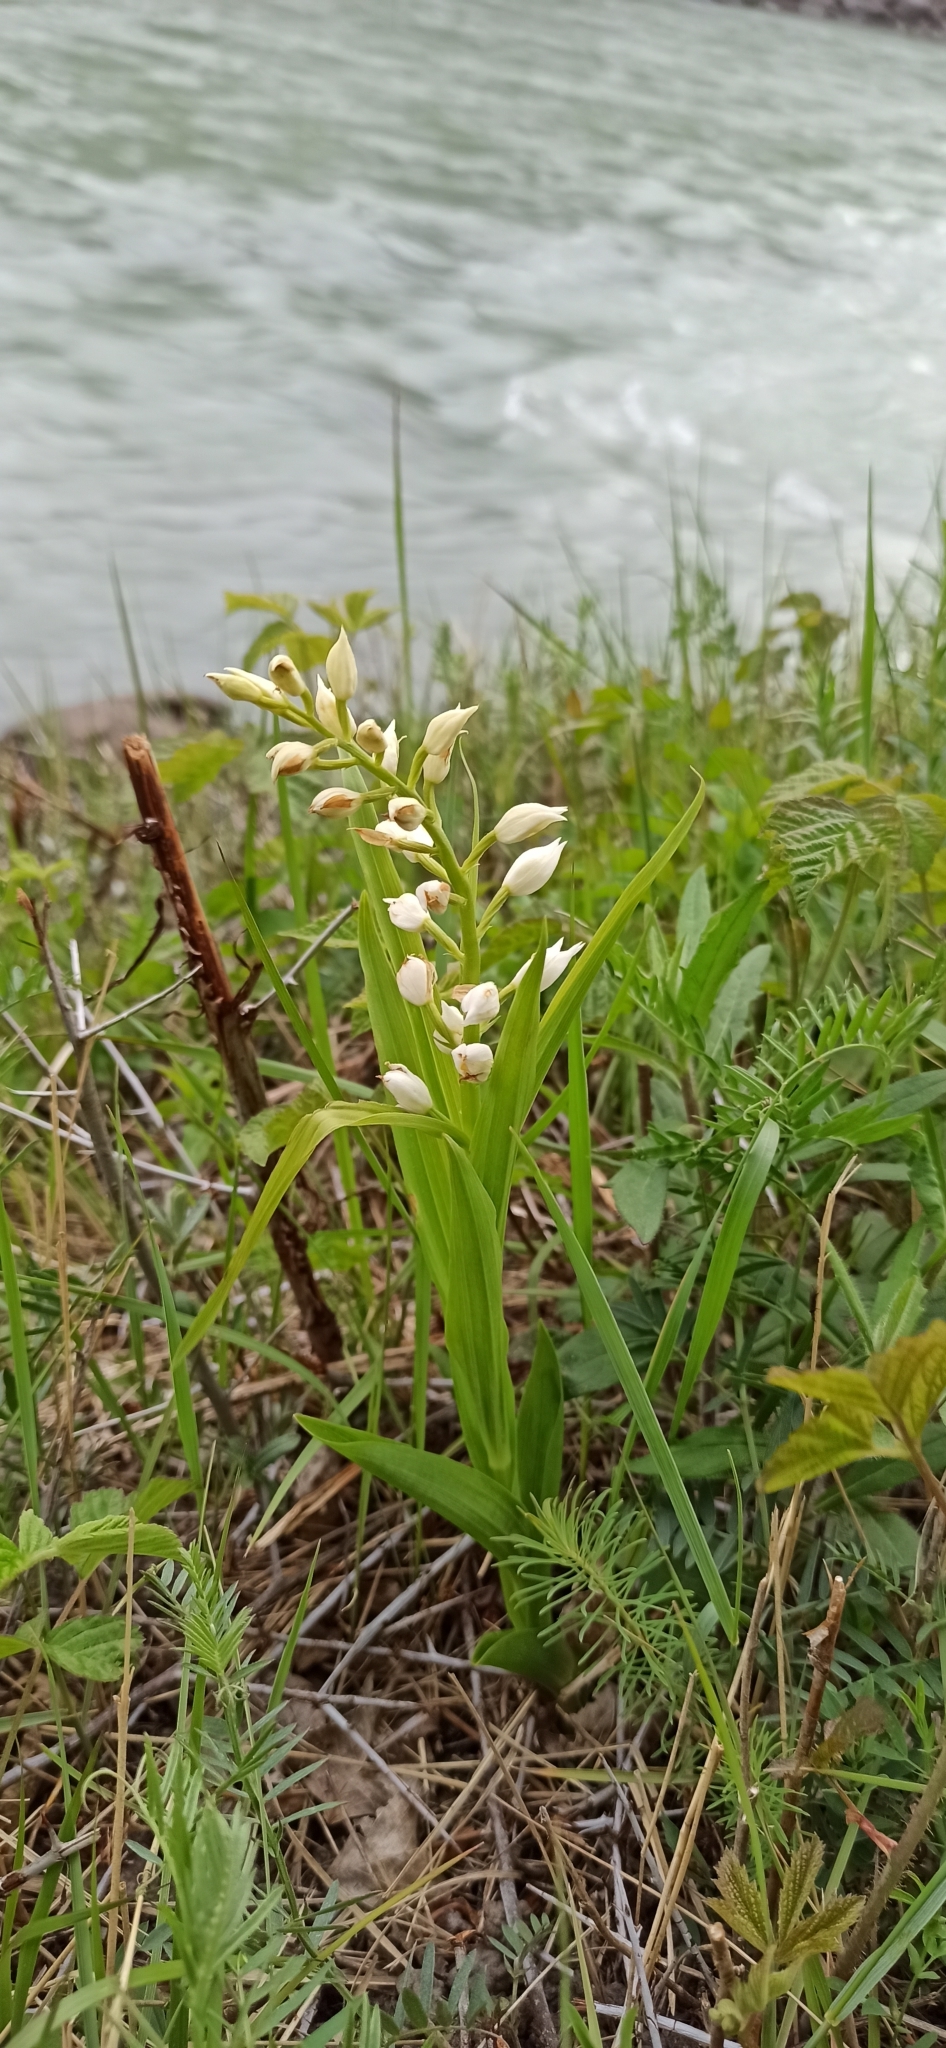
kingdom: Plantae
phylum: Tracheophyta
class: Liliopsida
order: Asparagales
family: Orchidaceae
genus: Cephalanthera
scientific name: Cephalanthera longifolia
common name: Narrow-leaved helleborine
